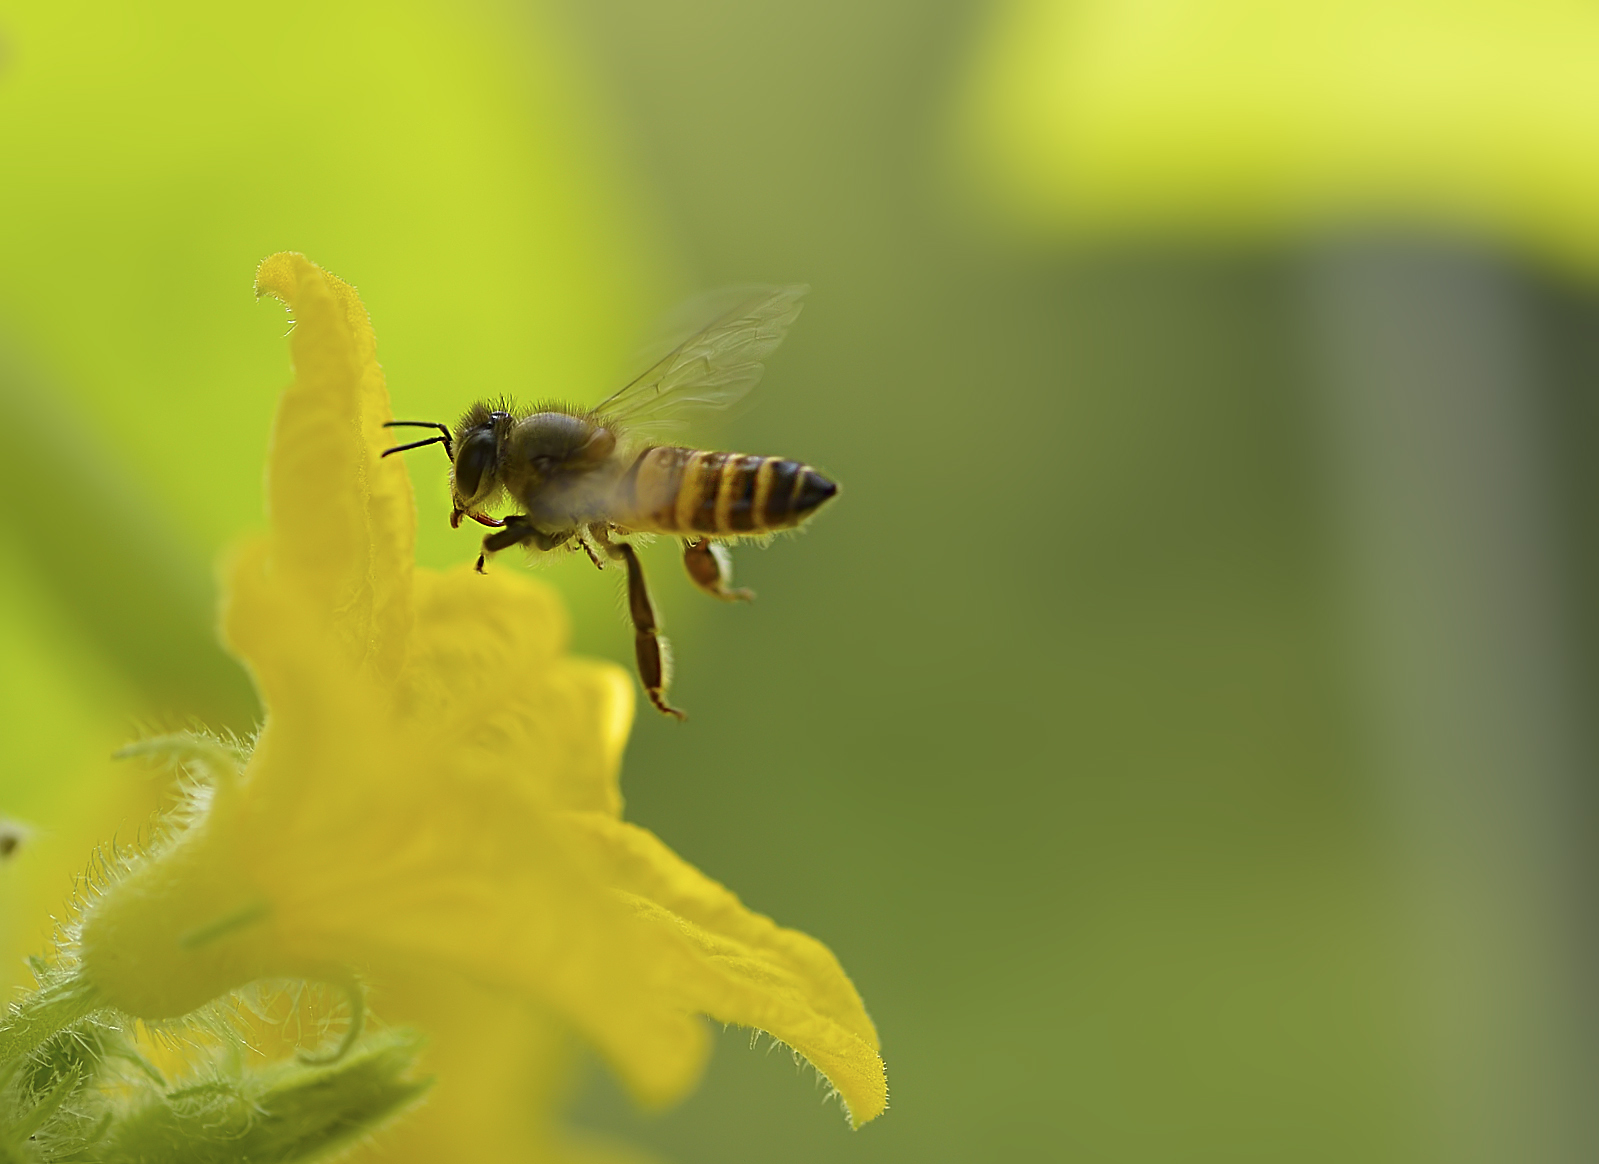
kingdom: Animalia
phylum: Arthropoda
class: Insecta
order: Hymenoptera
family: Apidae
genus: Apis
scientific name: Apis cerana
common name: Honey bee
